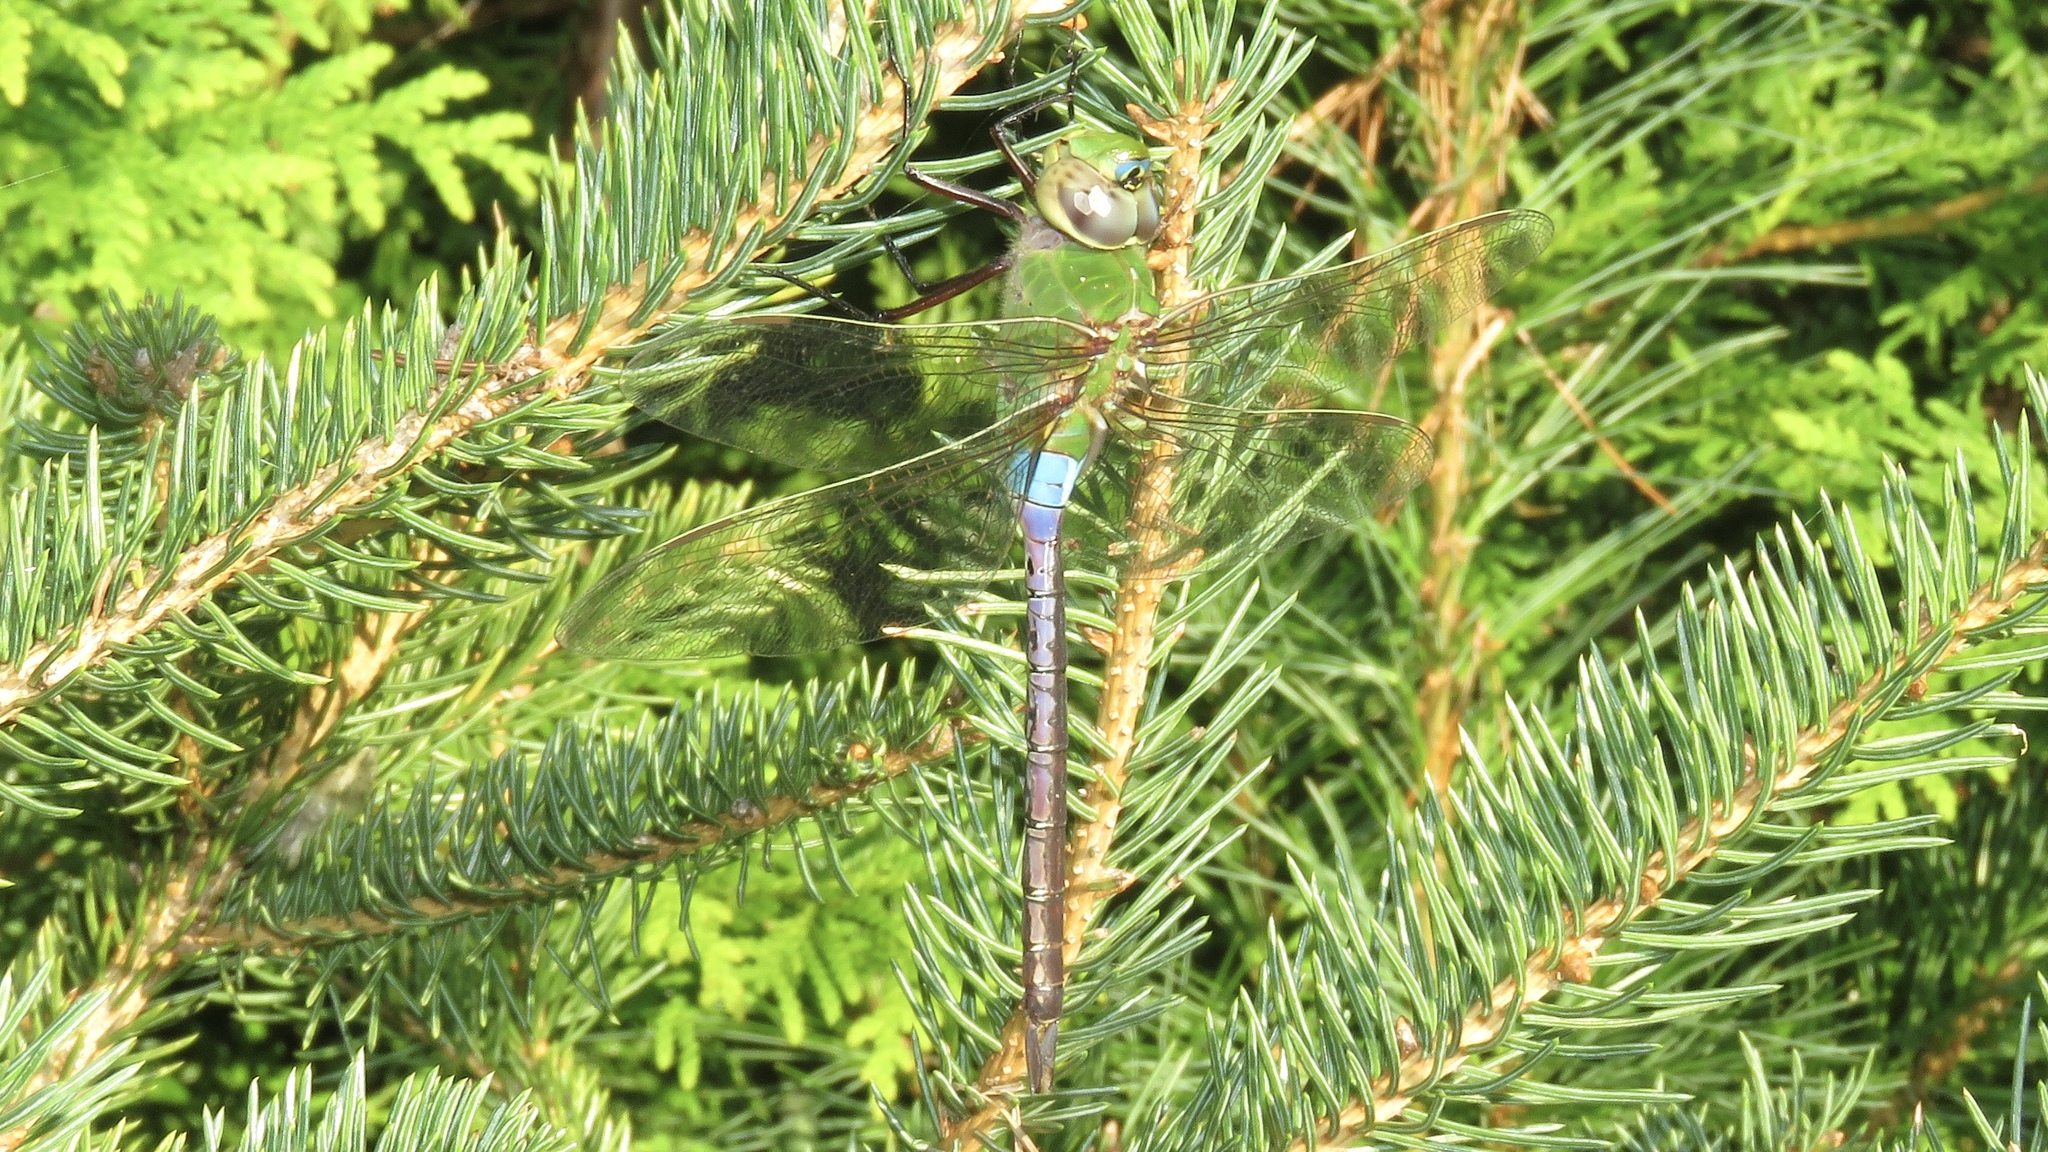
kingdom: Animalia
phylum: Arthropoda
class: Insecta
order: Odonata
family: Aeshnidae
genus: Anax
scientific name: Anax junius
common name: Common green darner
